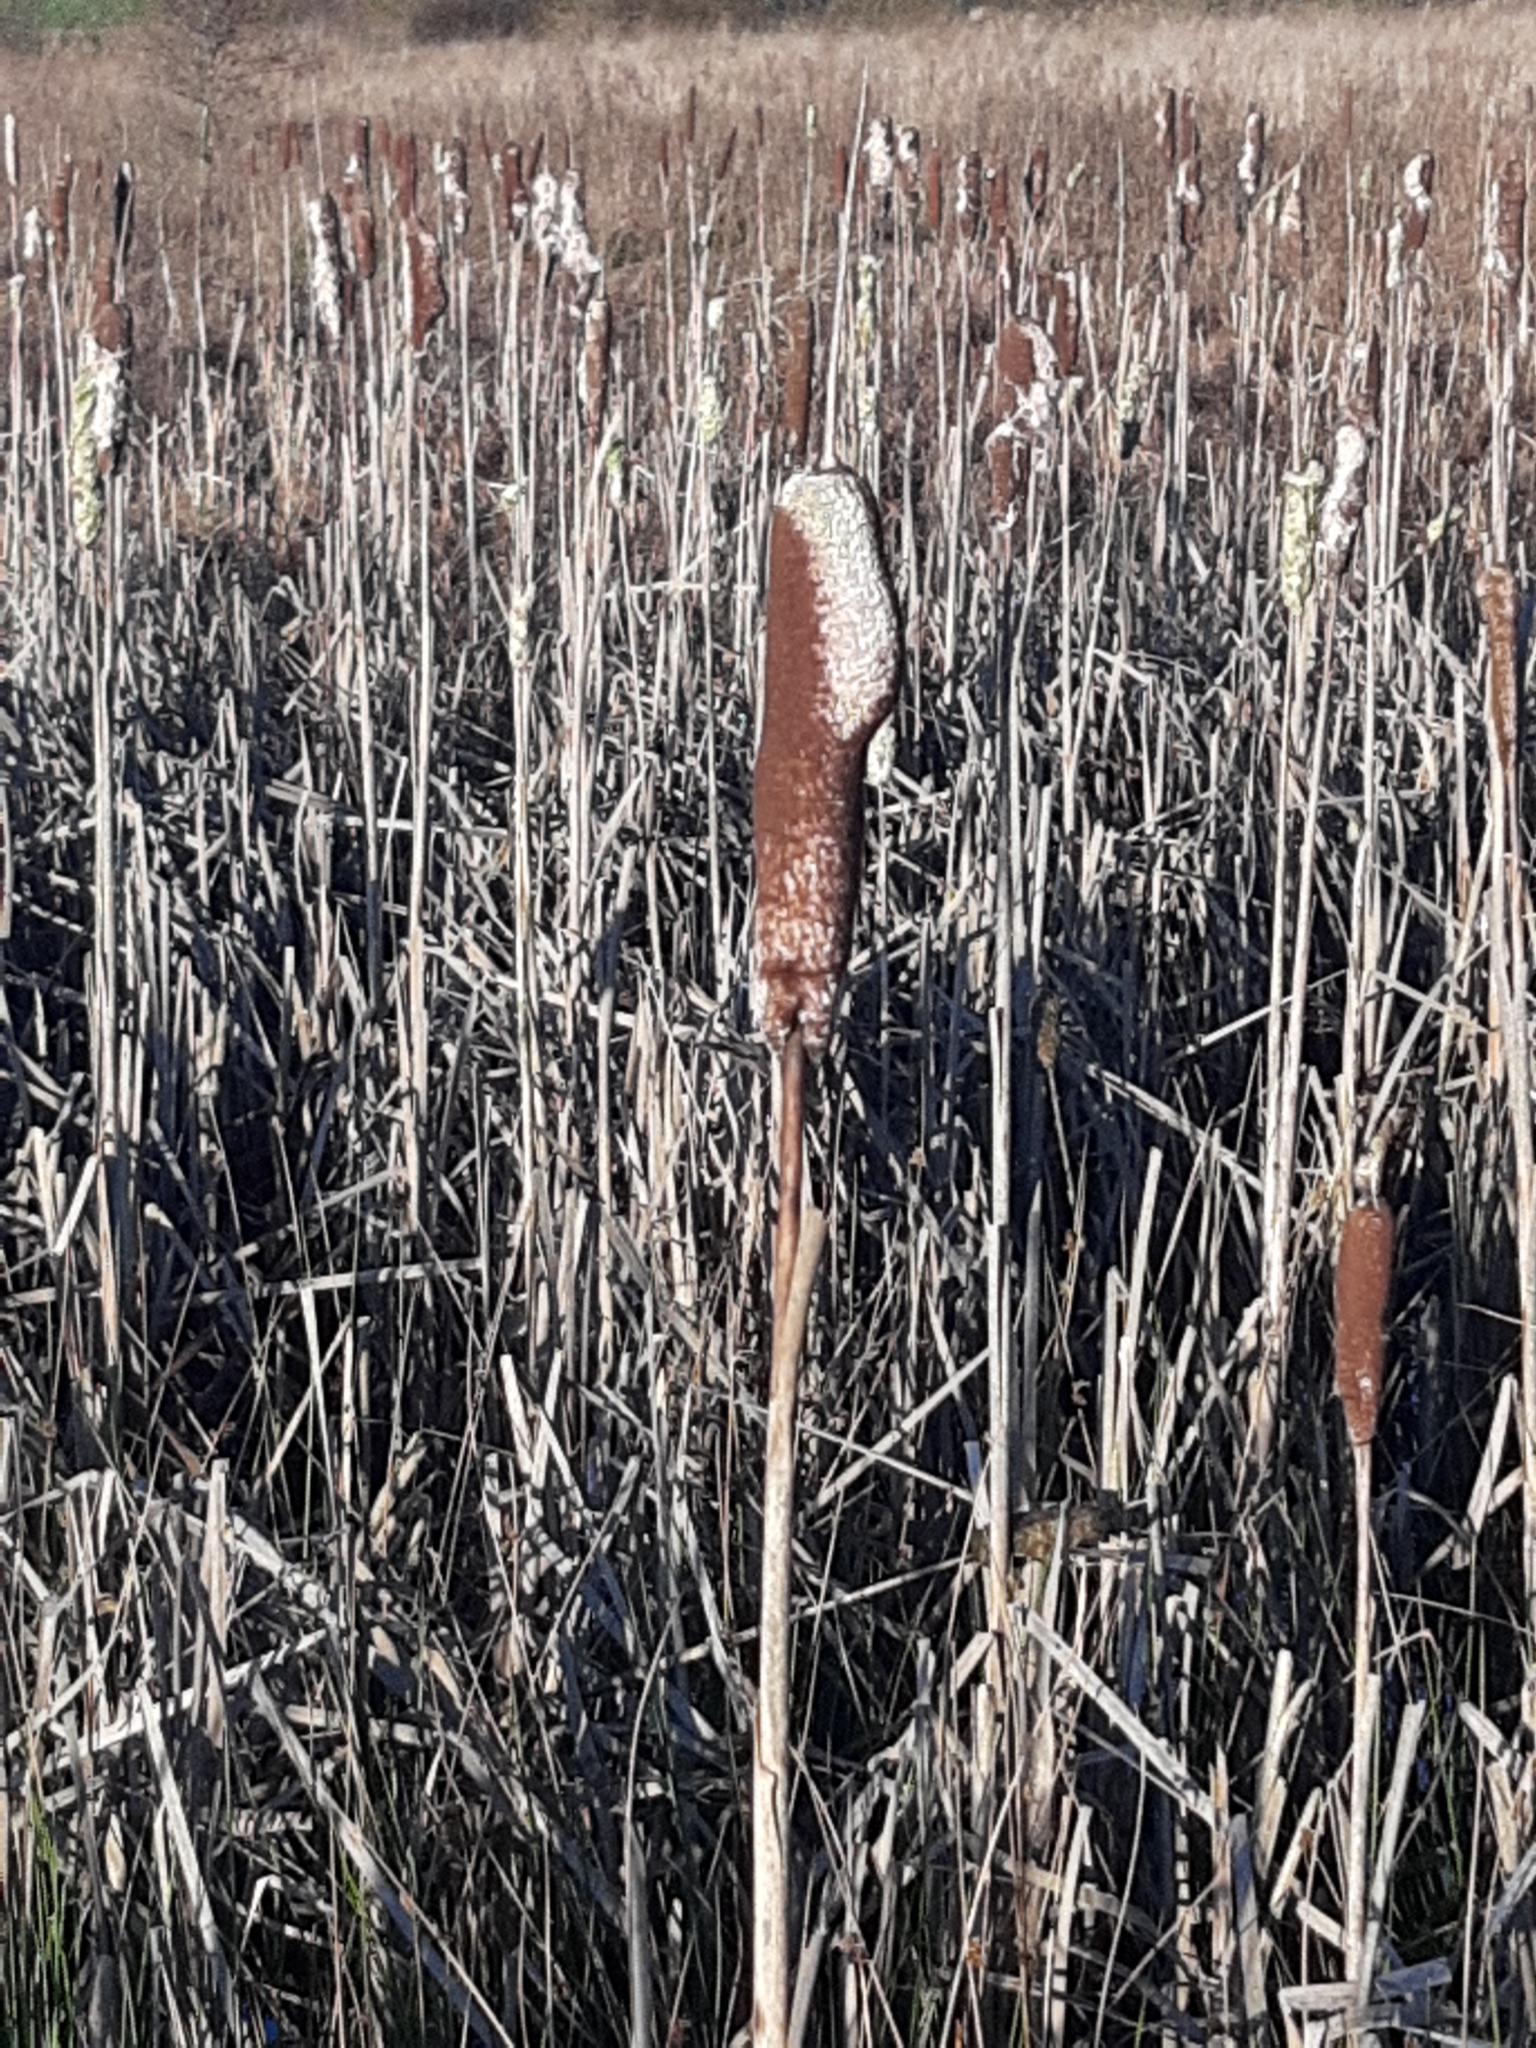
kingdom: Plantae
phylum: Tracheophyta
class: Liliopsida
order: Poales
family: Typhaceae
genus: Typha
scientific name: Typha latifolia
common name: Broadleaf cattail
